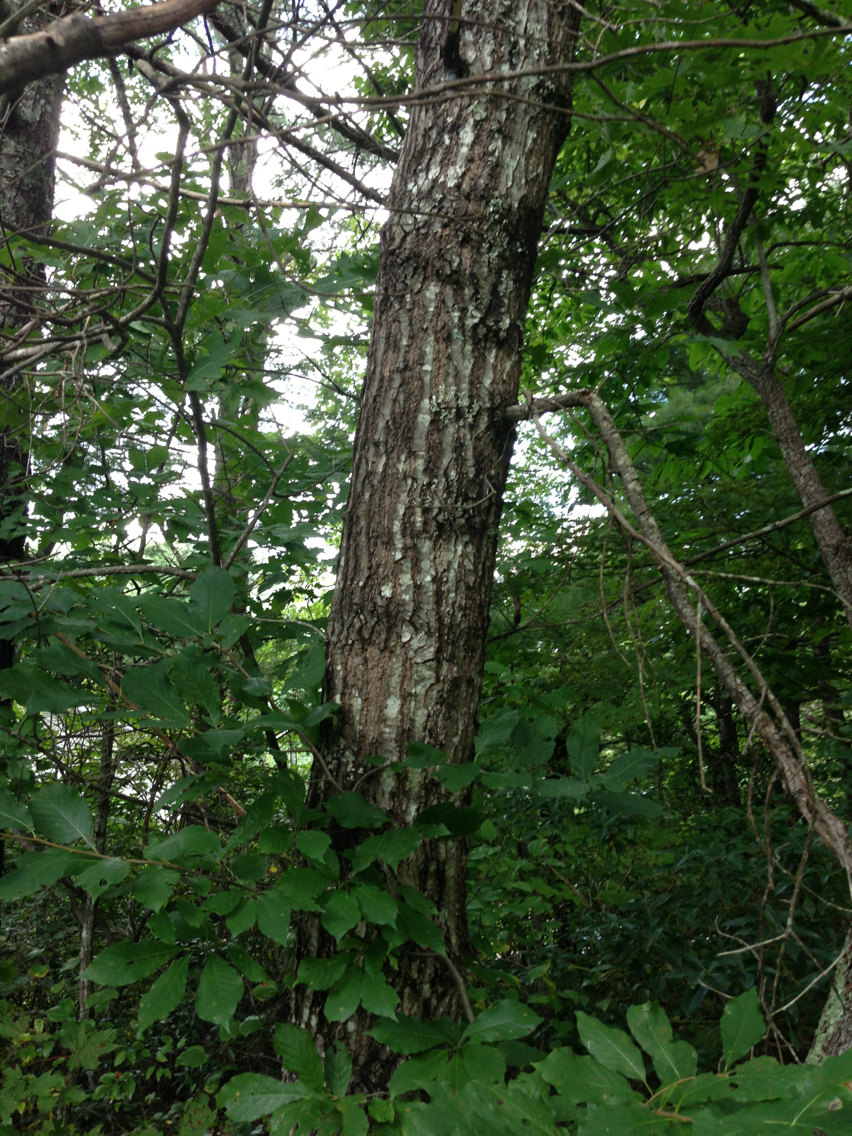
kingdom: Plantae
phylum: Tracheophyta
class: Magnoliopsida
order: Fagales
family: Fagaceae
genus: Quercus
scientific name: Quercus palustris
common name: Pin oak
